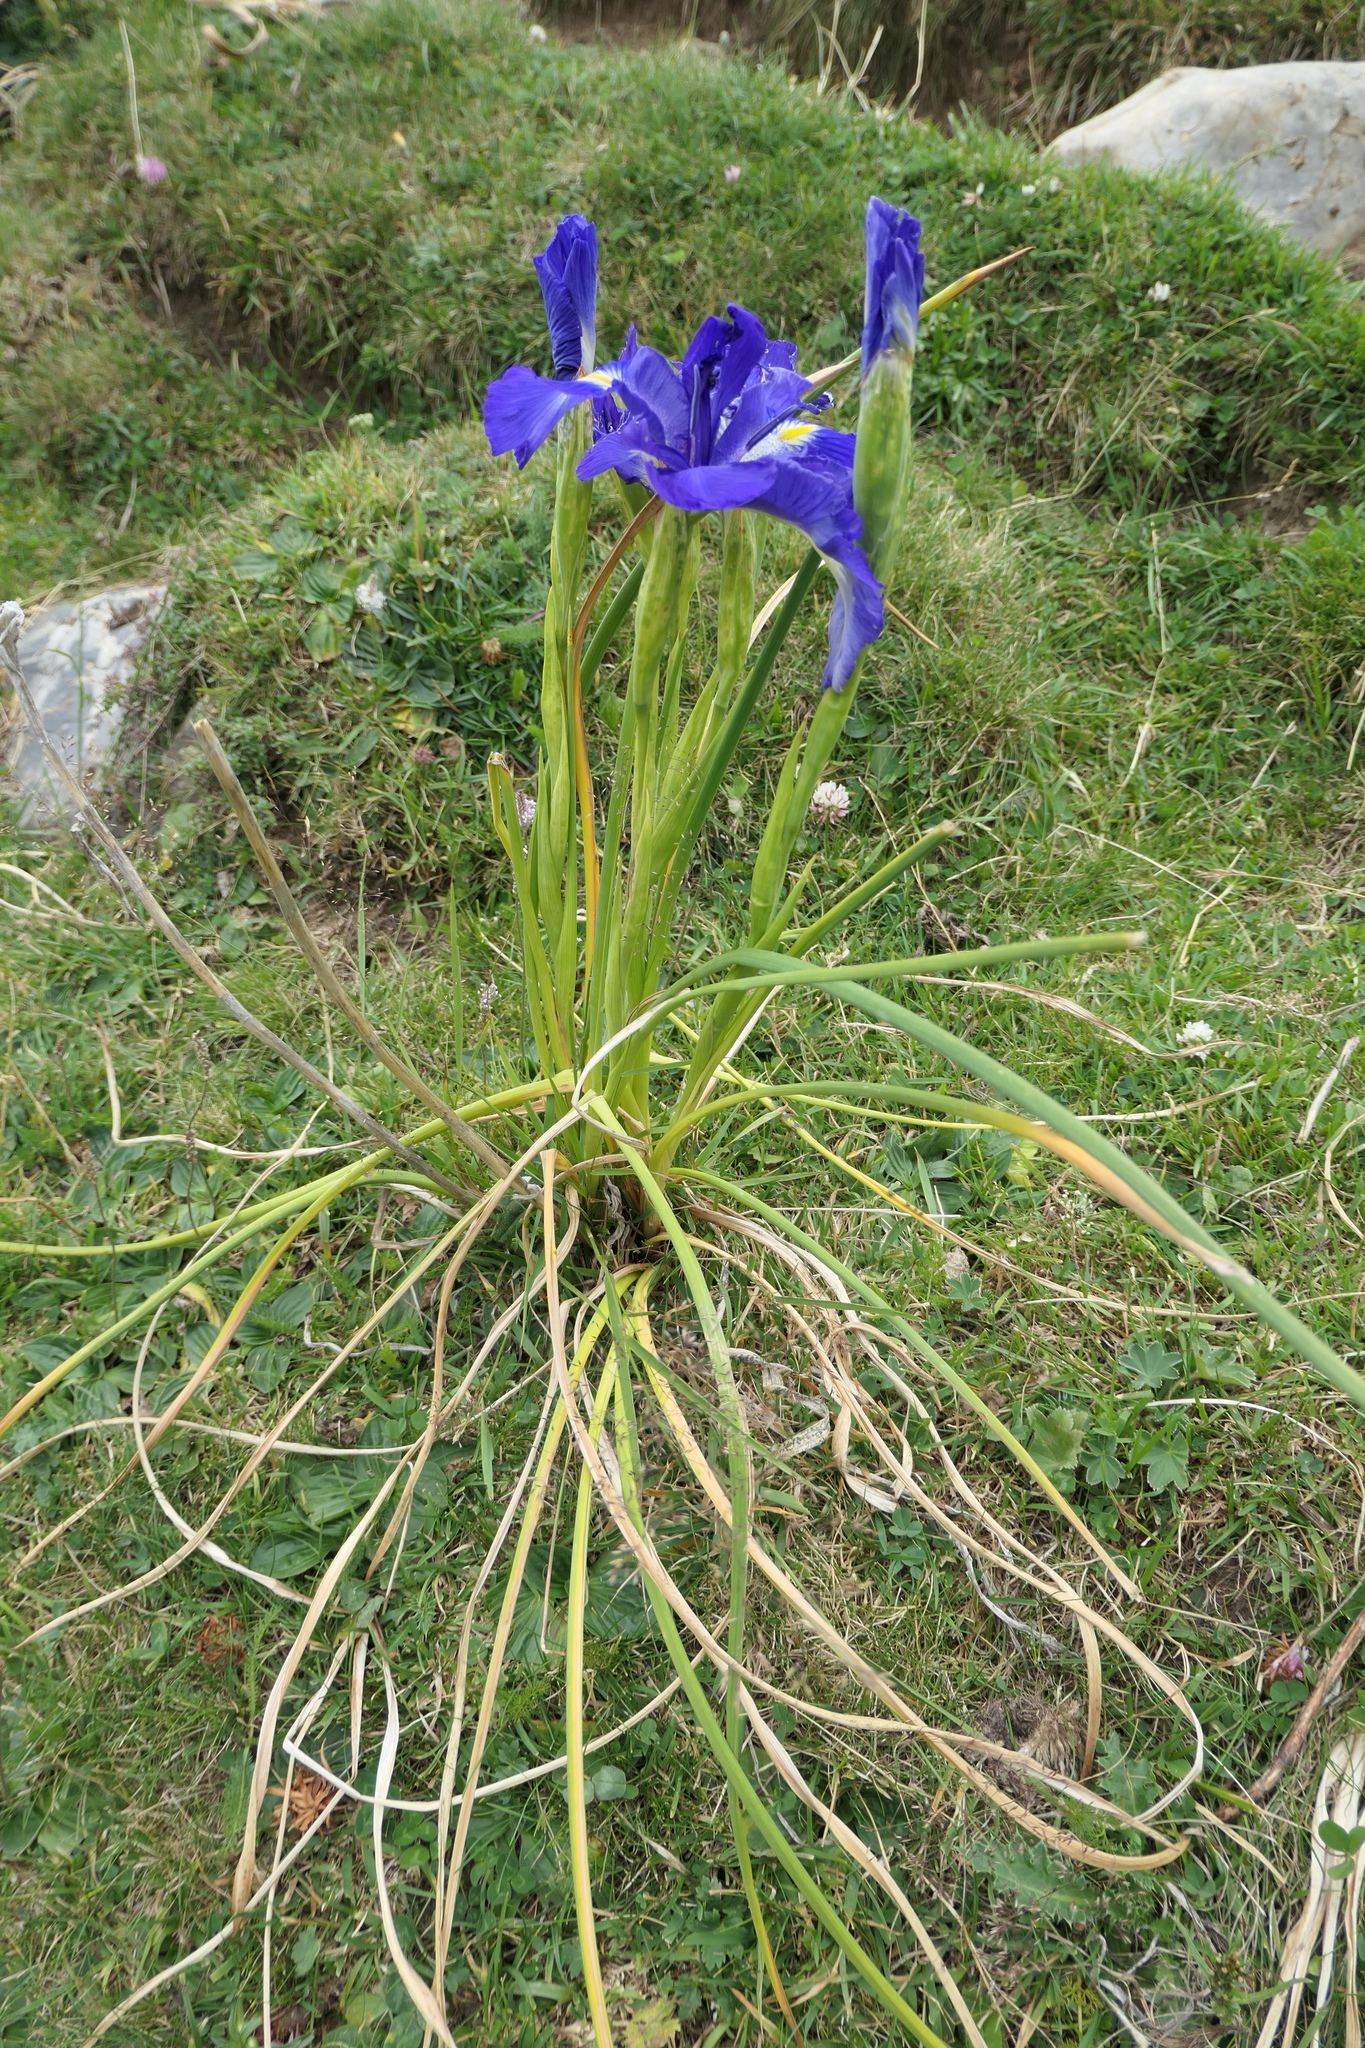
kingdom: Plantae
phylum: Tracheophyta
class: Liliopsida
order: Asparagales
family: Iridaceae
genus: Iris
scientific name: Iris
